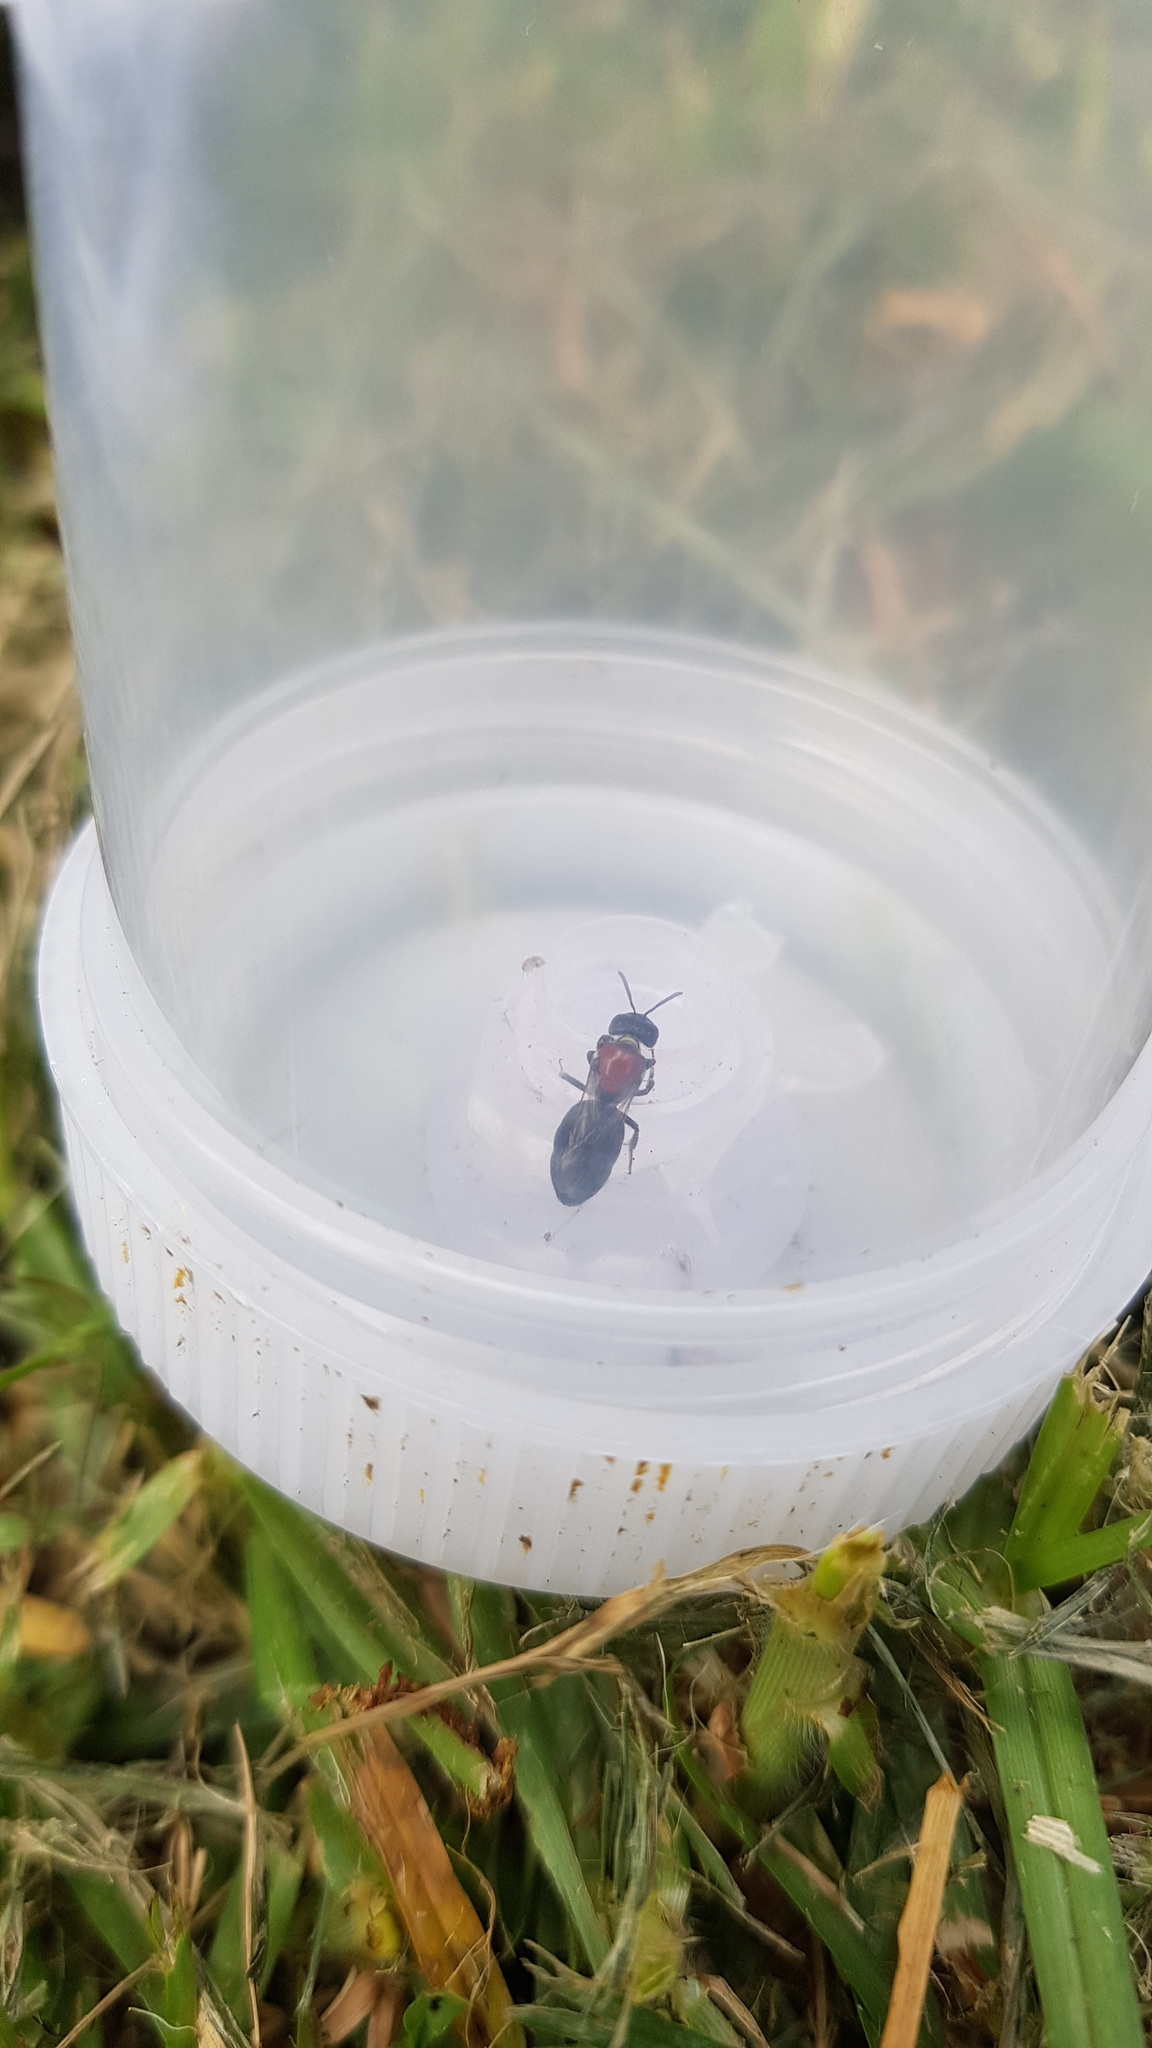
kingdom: Animalia
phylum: Arthropoda
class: Insecta
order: Hymenoptera
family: Colletidae
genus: Euryglossa
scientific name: Euryglossa ephippiata
